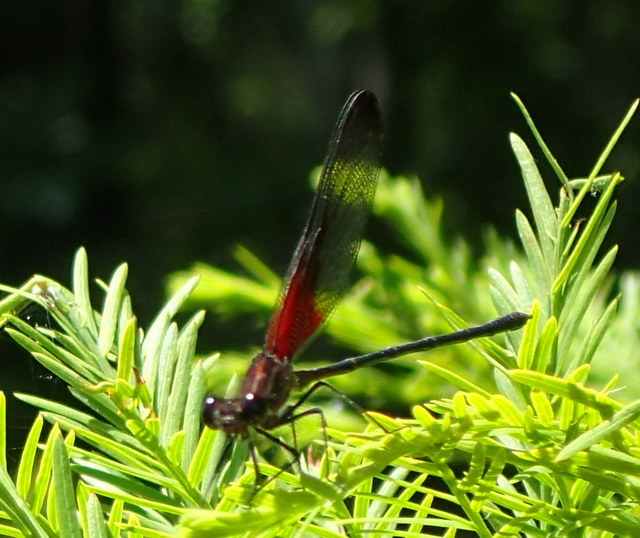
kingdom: Animalia
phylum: Arthropoda
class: Insecta
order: Odonata
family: Calopterygidae
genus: Hetaerina
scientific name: Hetaerina titia
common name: Smoky rubyspot
